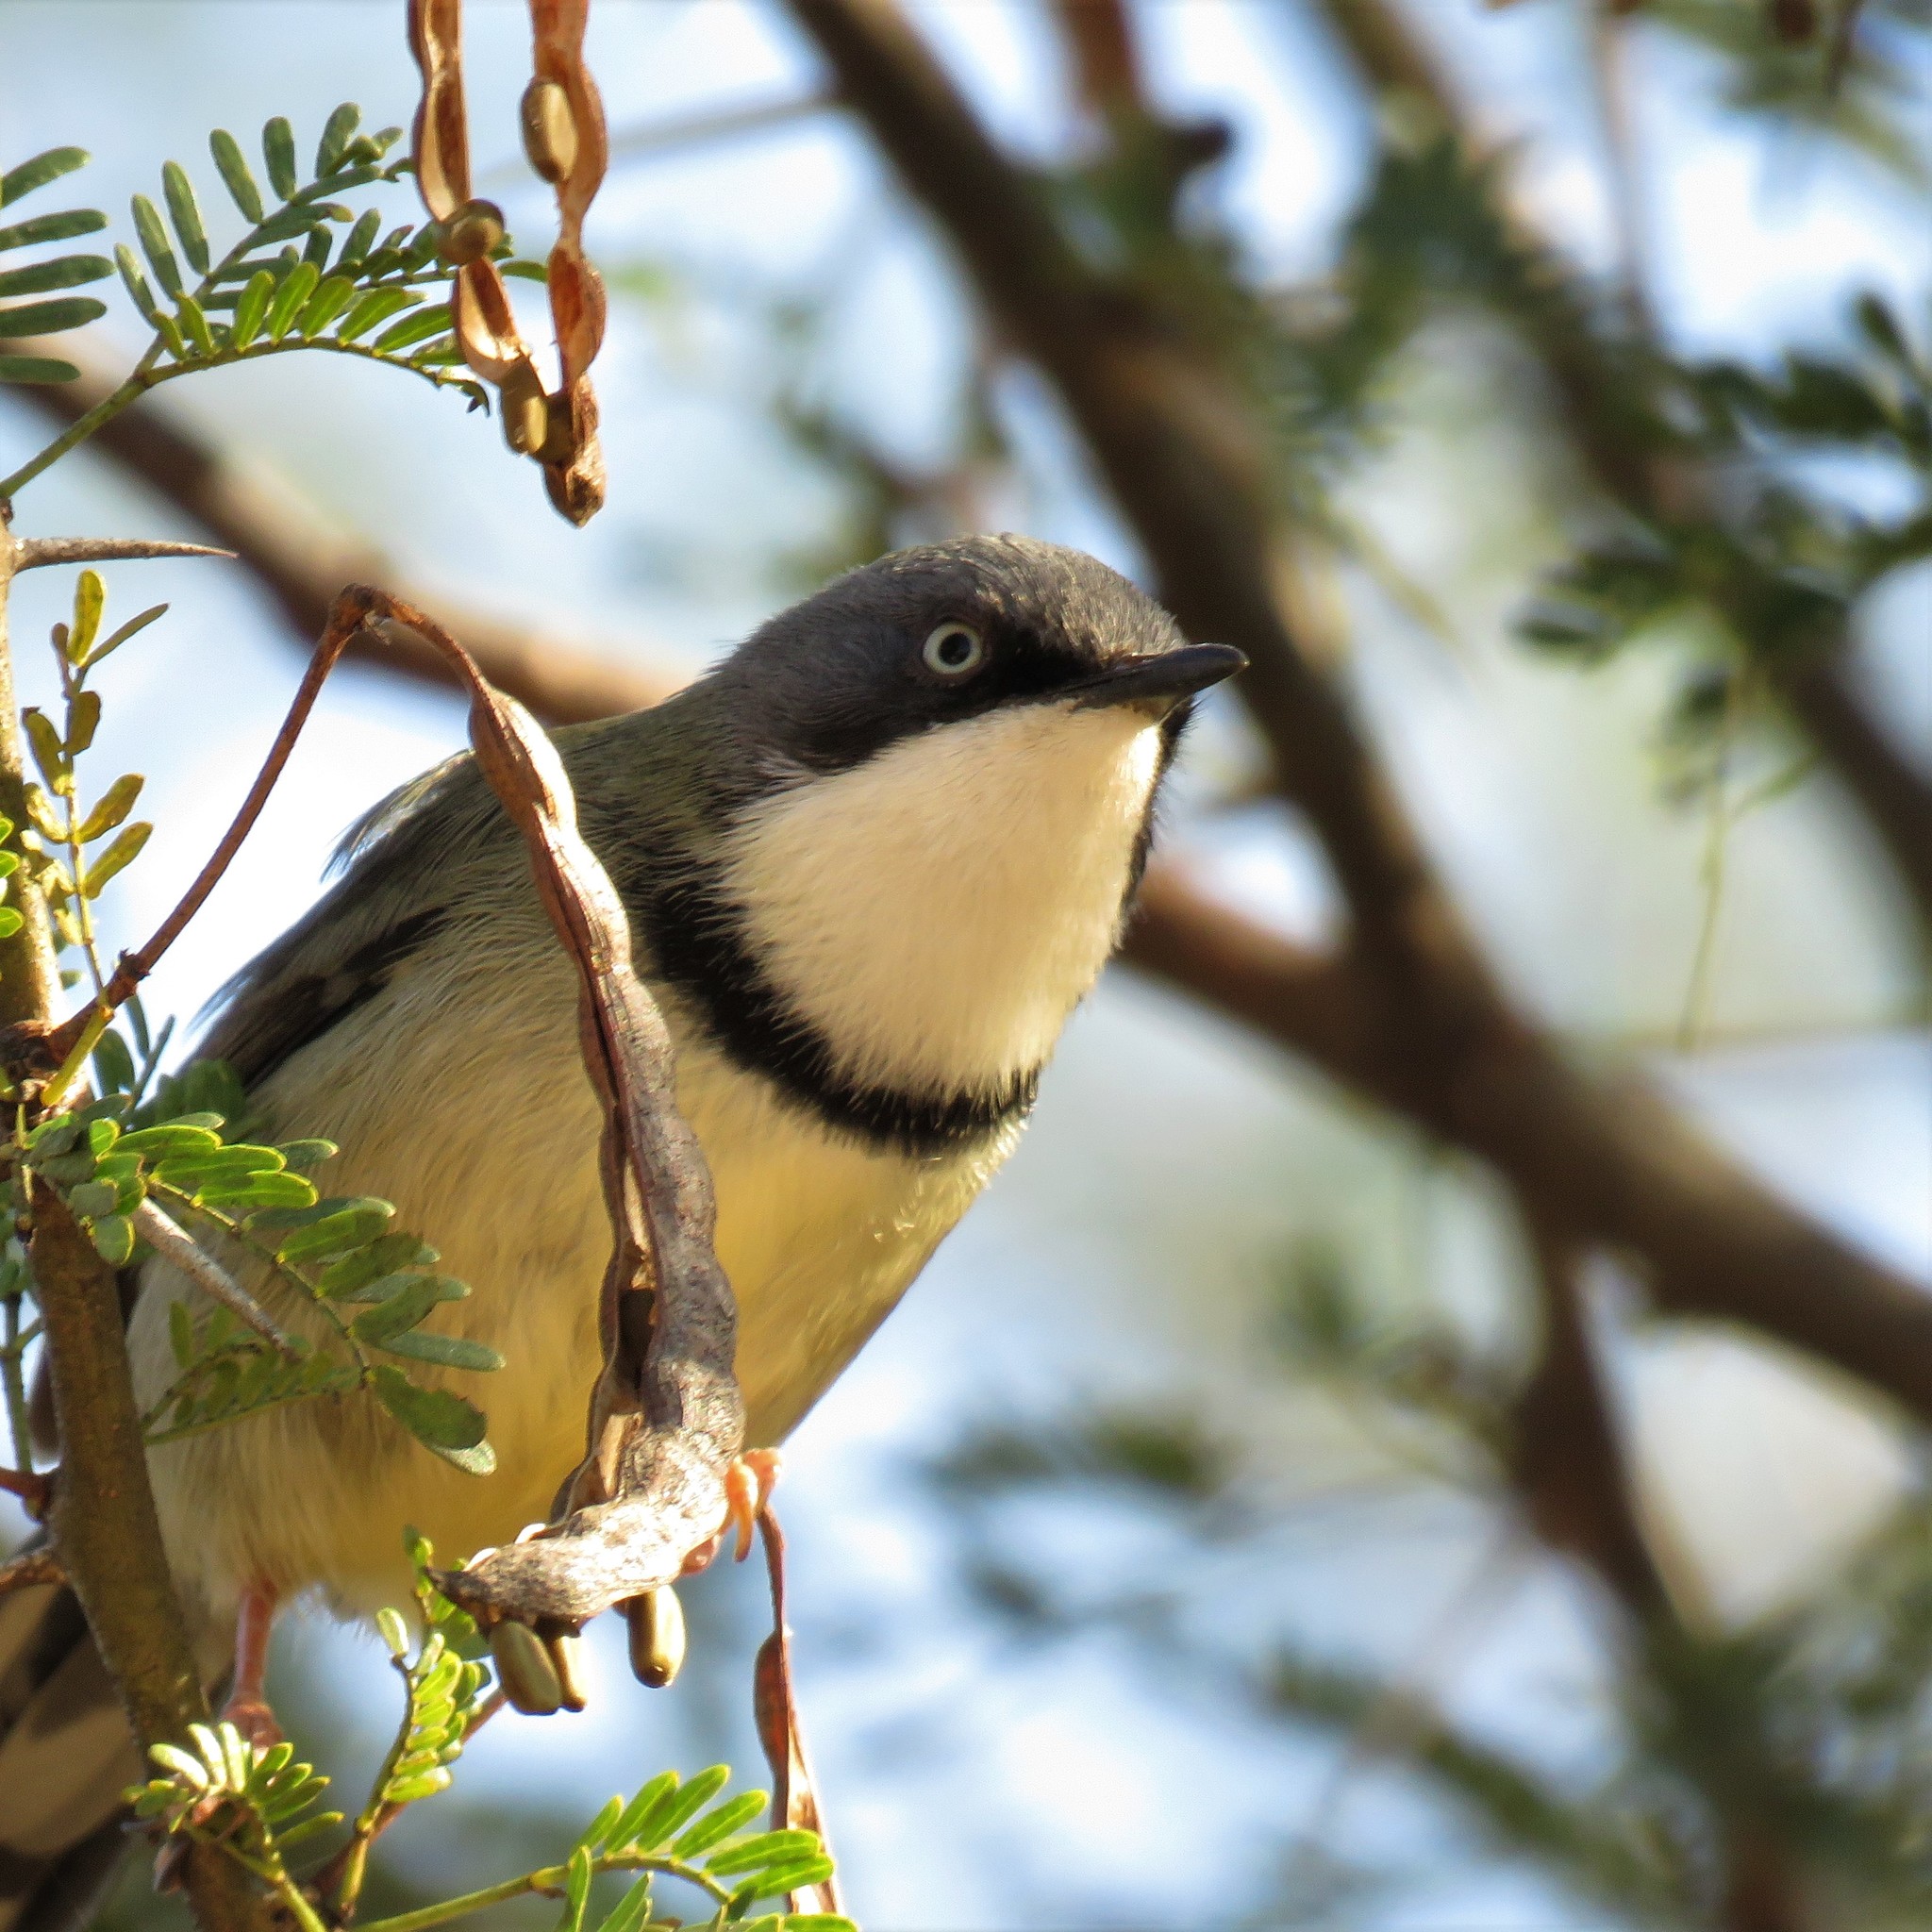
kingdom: Animalia
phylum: Chordata
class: Aves
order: Passeriformes
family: Cisticolidae
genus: Apalis
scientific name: Apalis thoracica
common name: Bar-throated apalis
